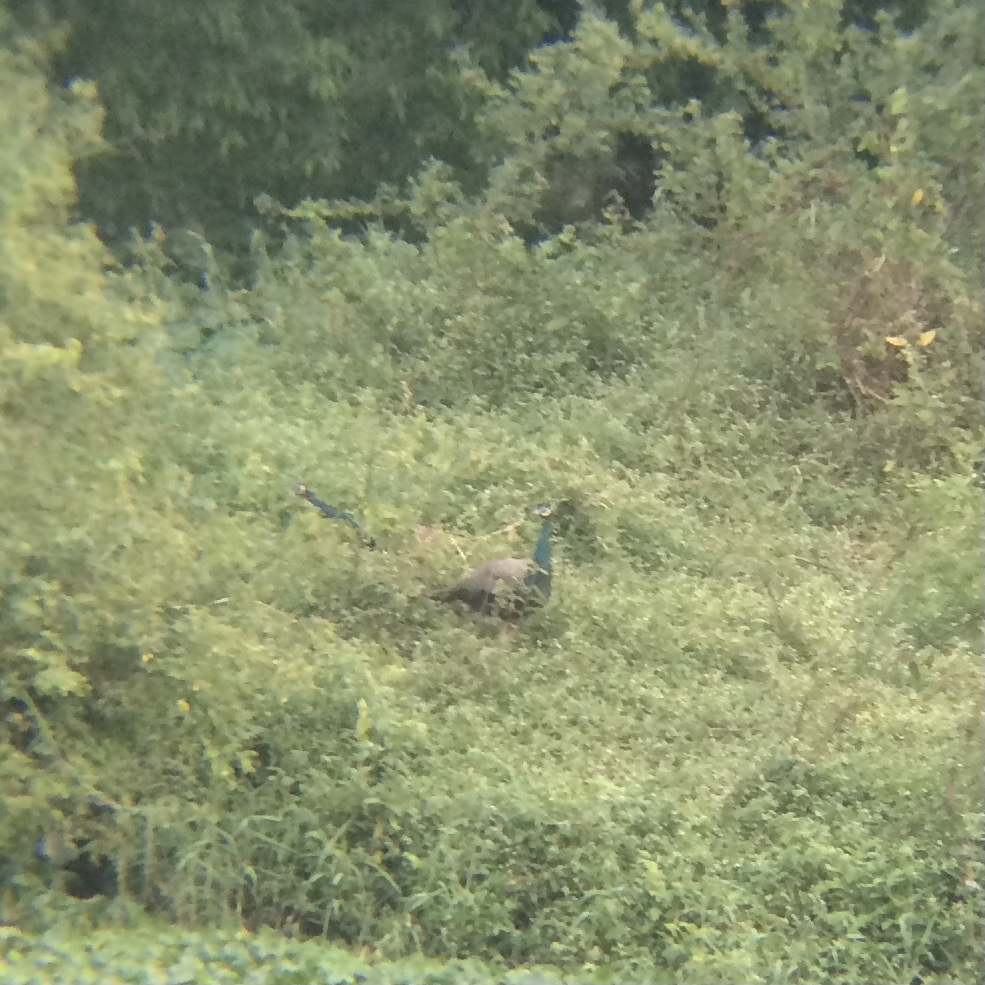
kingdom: Animalia
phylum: Chordata
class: Aves
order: Galliformes
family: Phasianidae
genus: Pavo
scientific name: Pavo cristatus
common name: Indian peafowl
